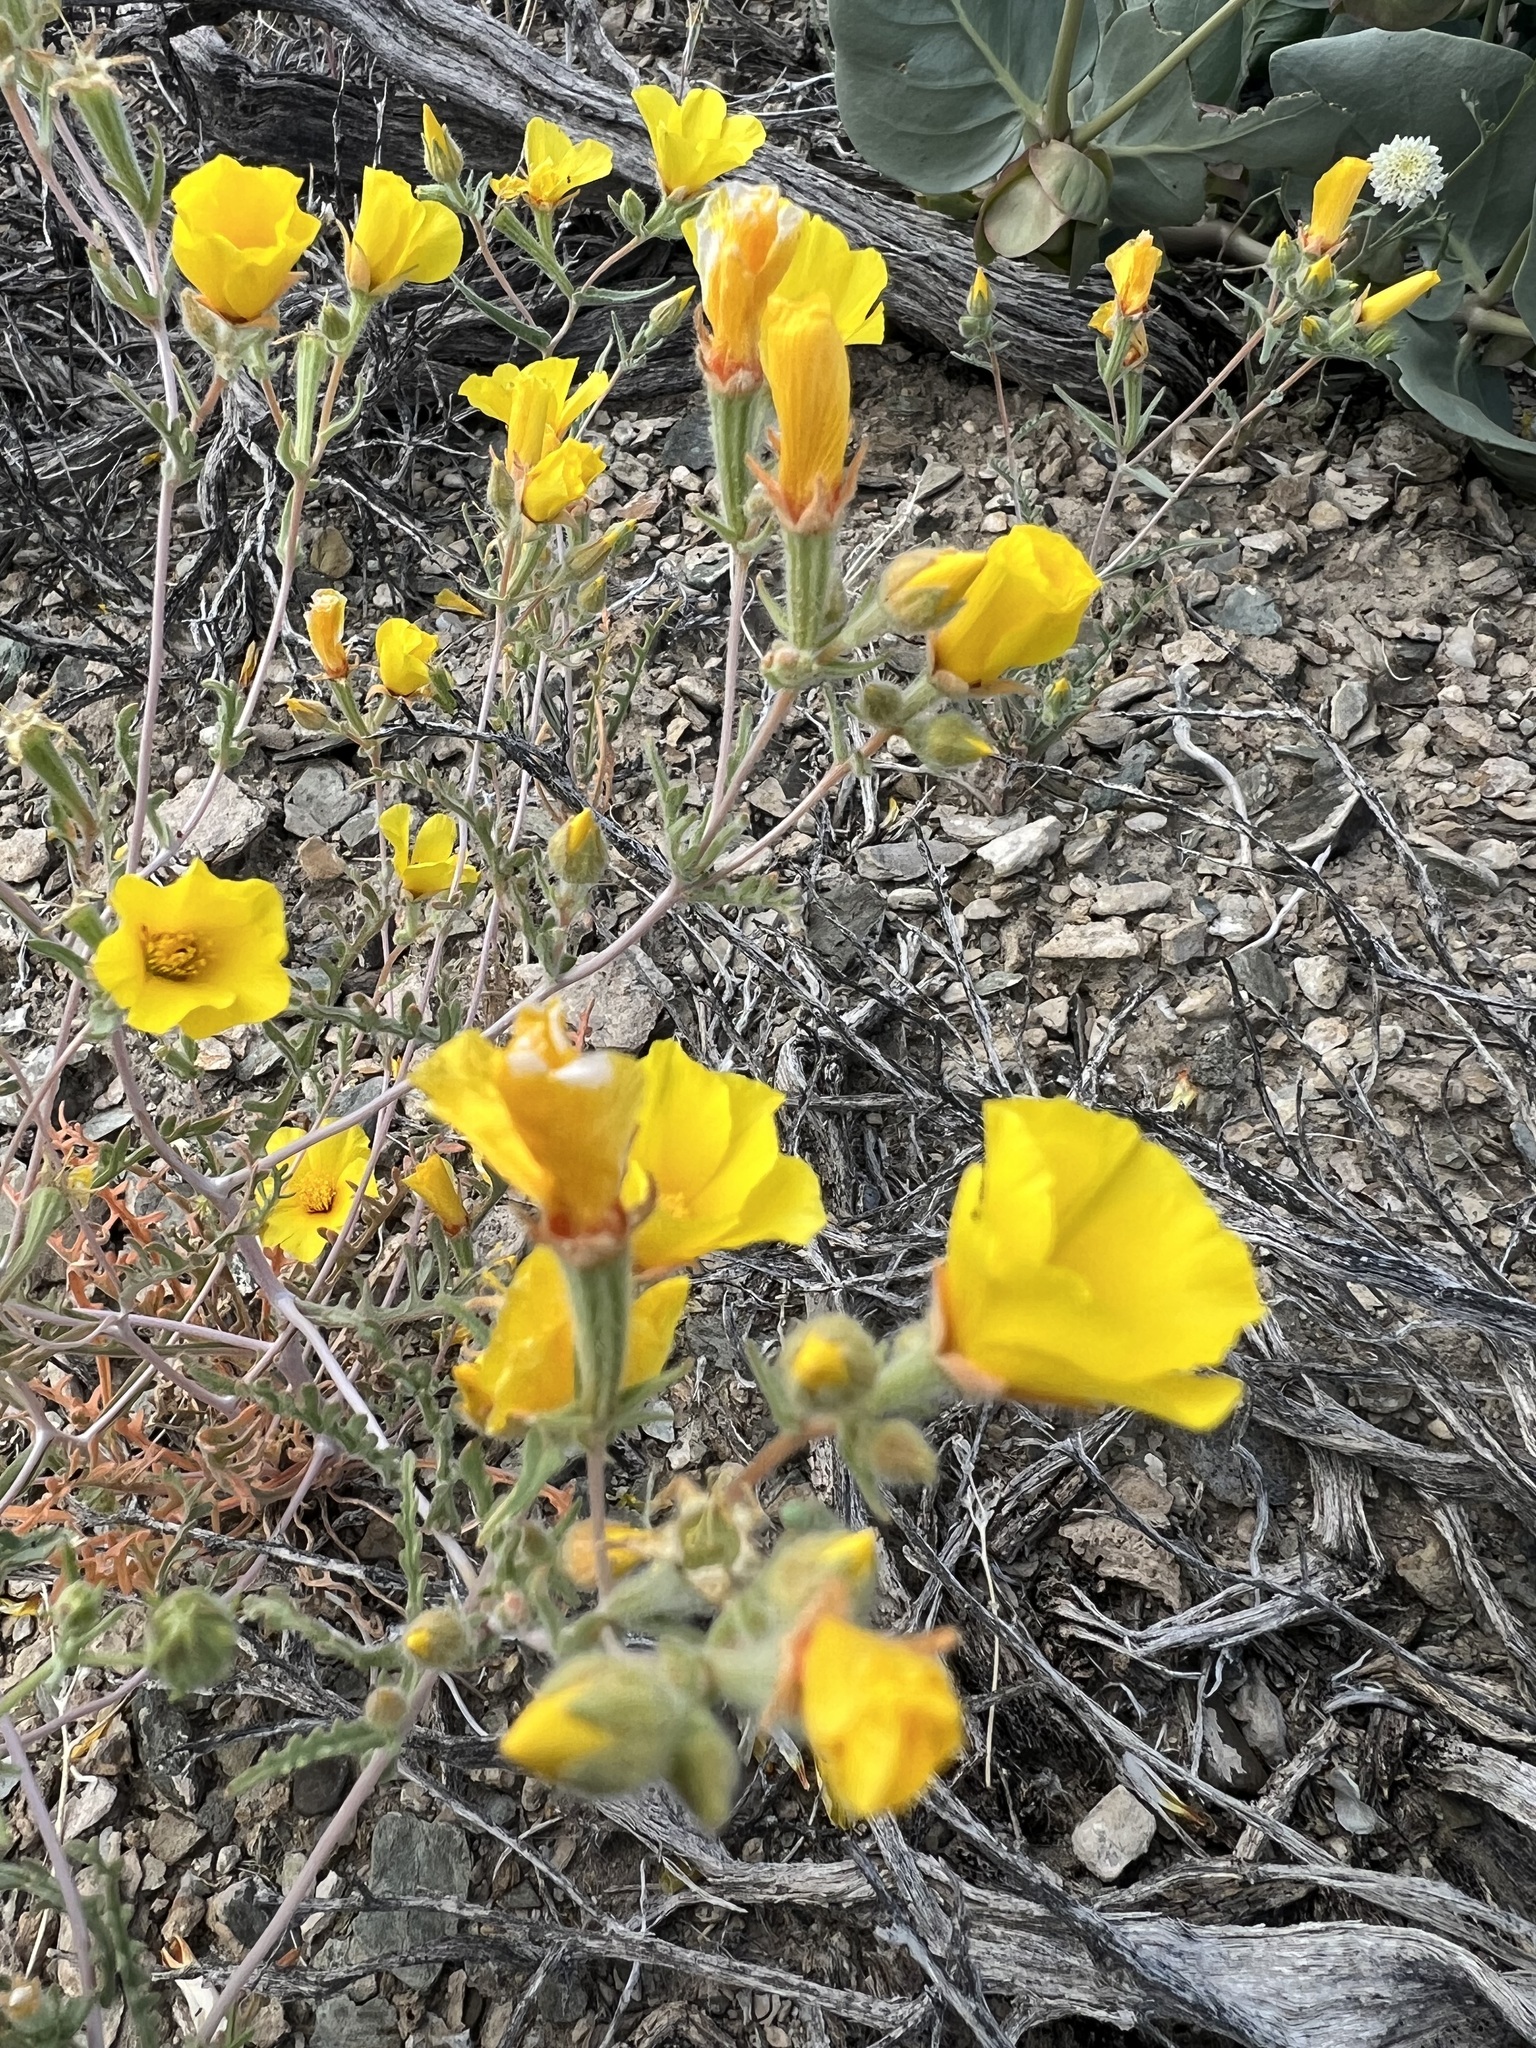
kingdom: Plantae
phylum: Tracheophyta
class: Magnoliopsida
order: Cornales
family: Loasaceae
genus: Mentzelia
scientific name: Mentzelia nitens
